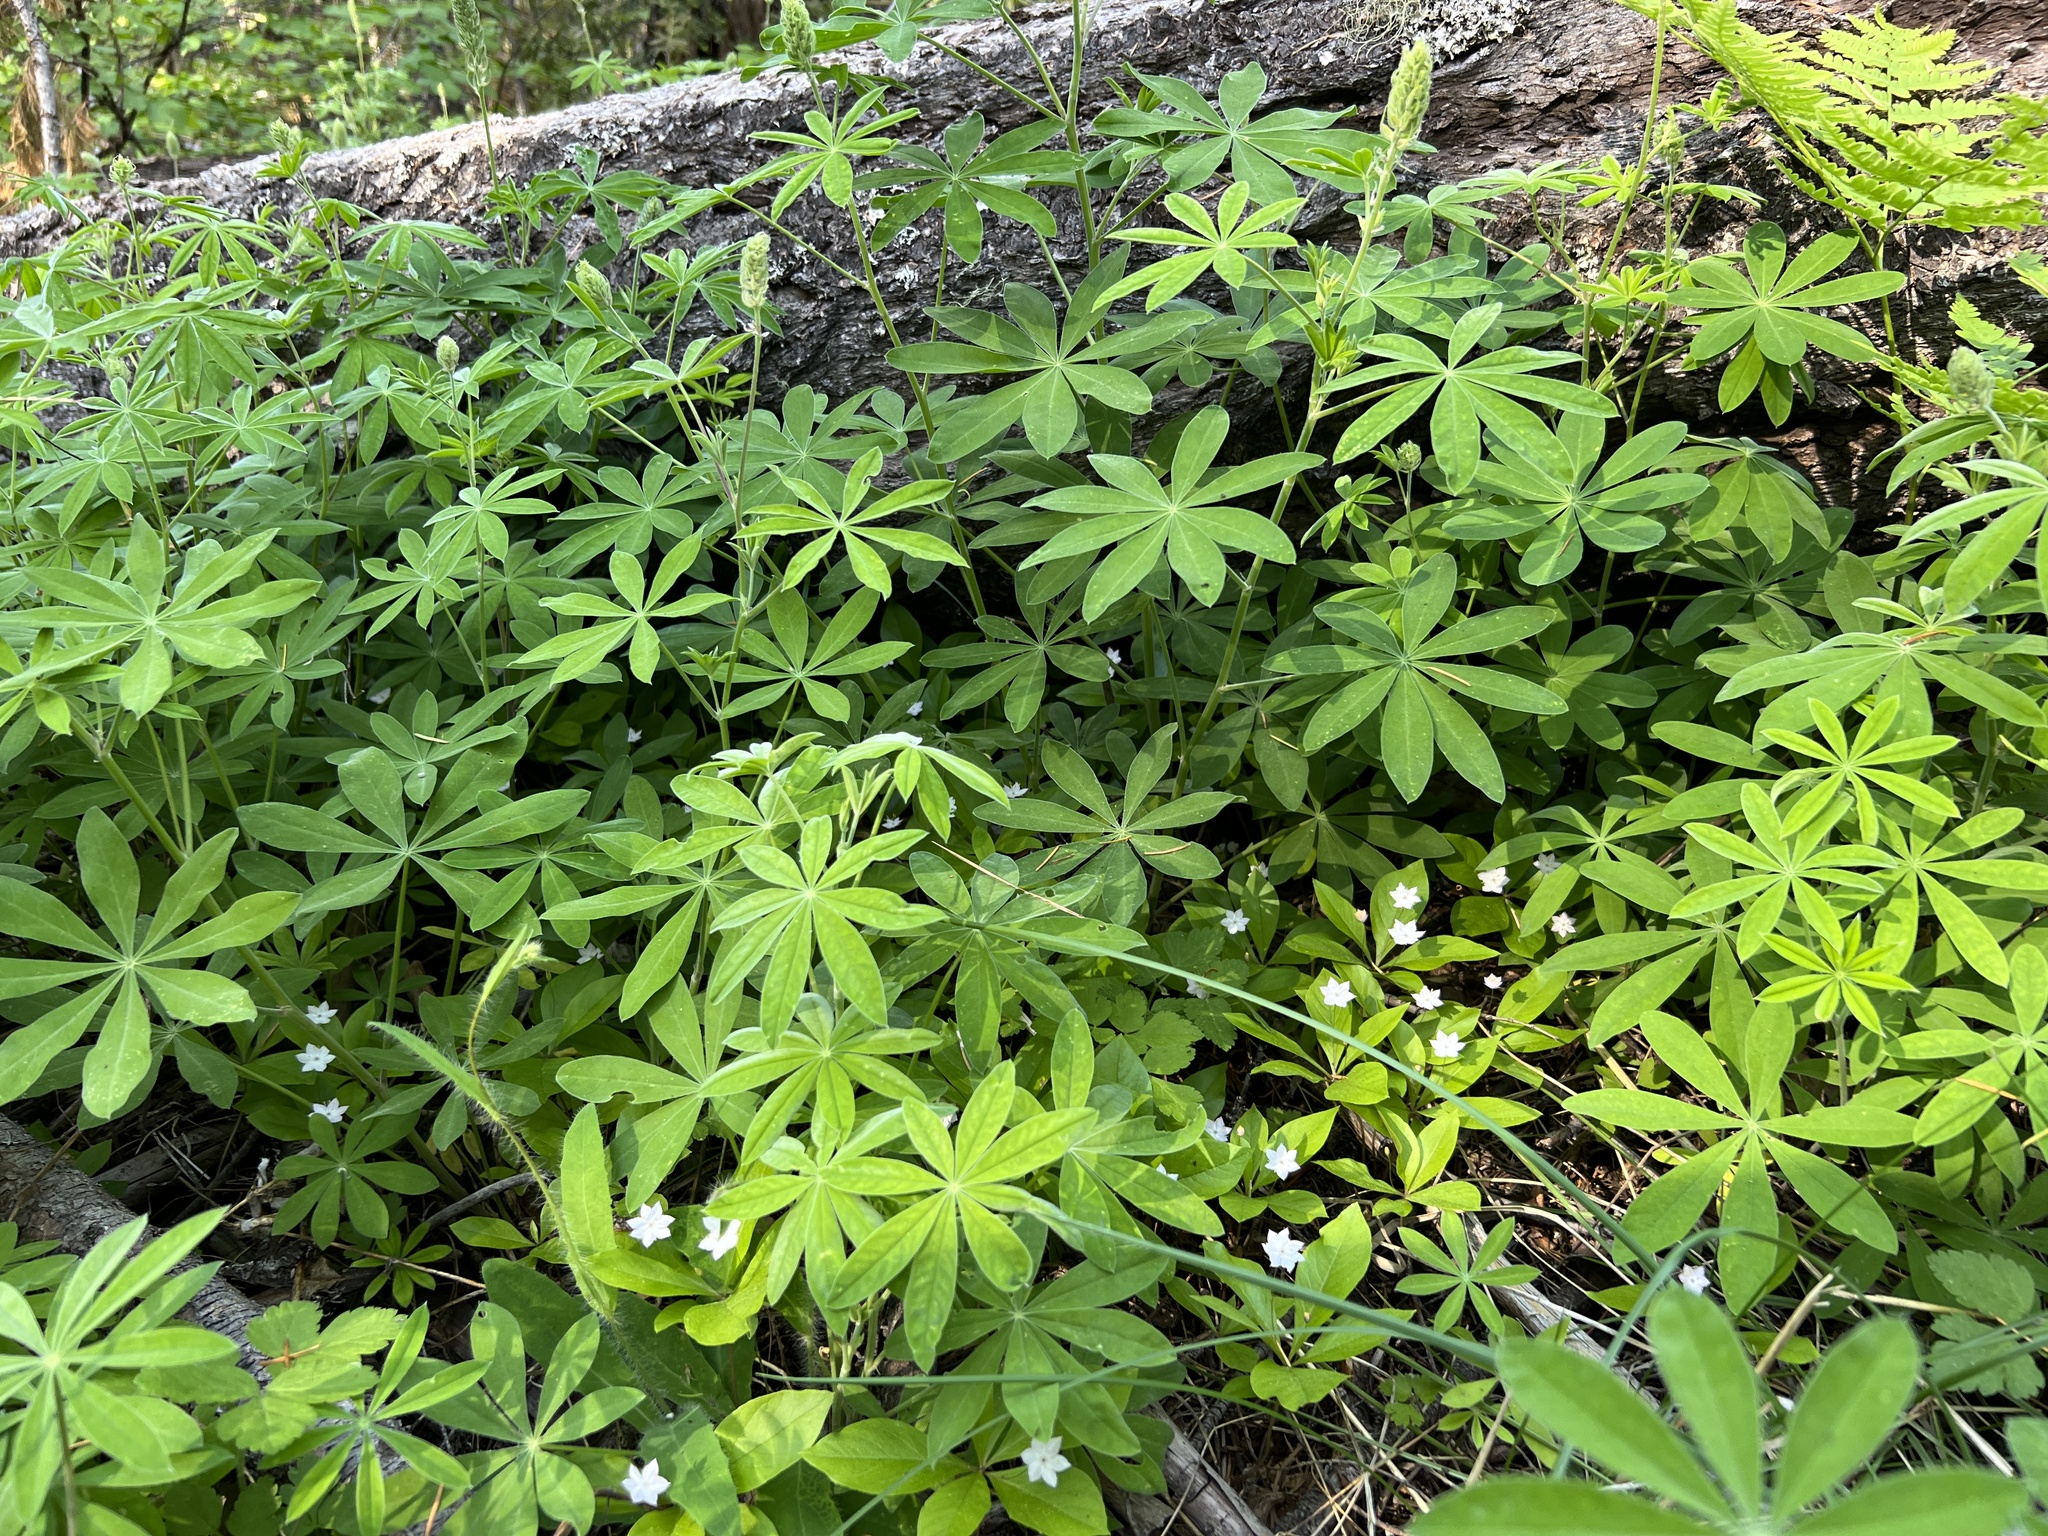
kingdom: Plantae
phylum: Tracheophyta
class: Magnoliopsida
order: Ericales
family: Primulaceae
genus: Lysimachia
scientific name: Lysimachia latifolia
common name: Pacific starflower
